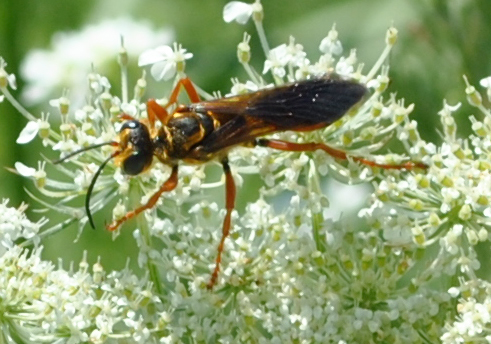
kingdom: Animalia
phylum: Arthropoda
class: Insecta
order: Hymenoptera
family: Sphecidae
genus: Sphex
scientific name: Sphex ichneumoneus
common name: Great golden digger wasp
